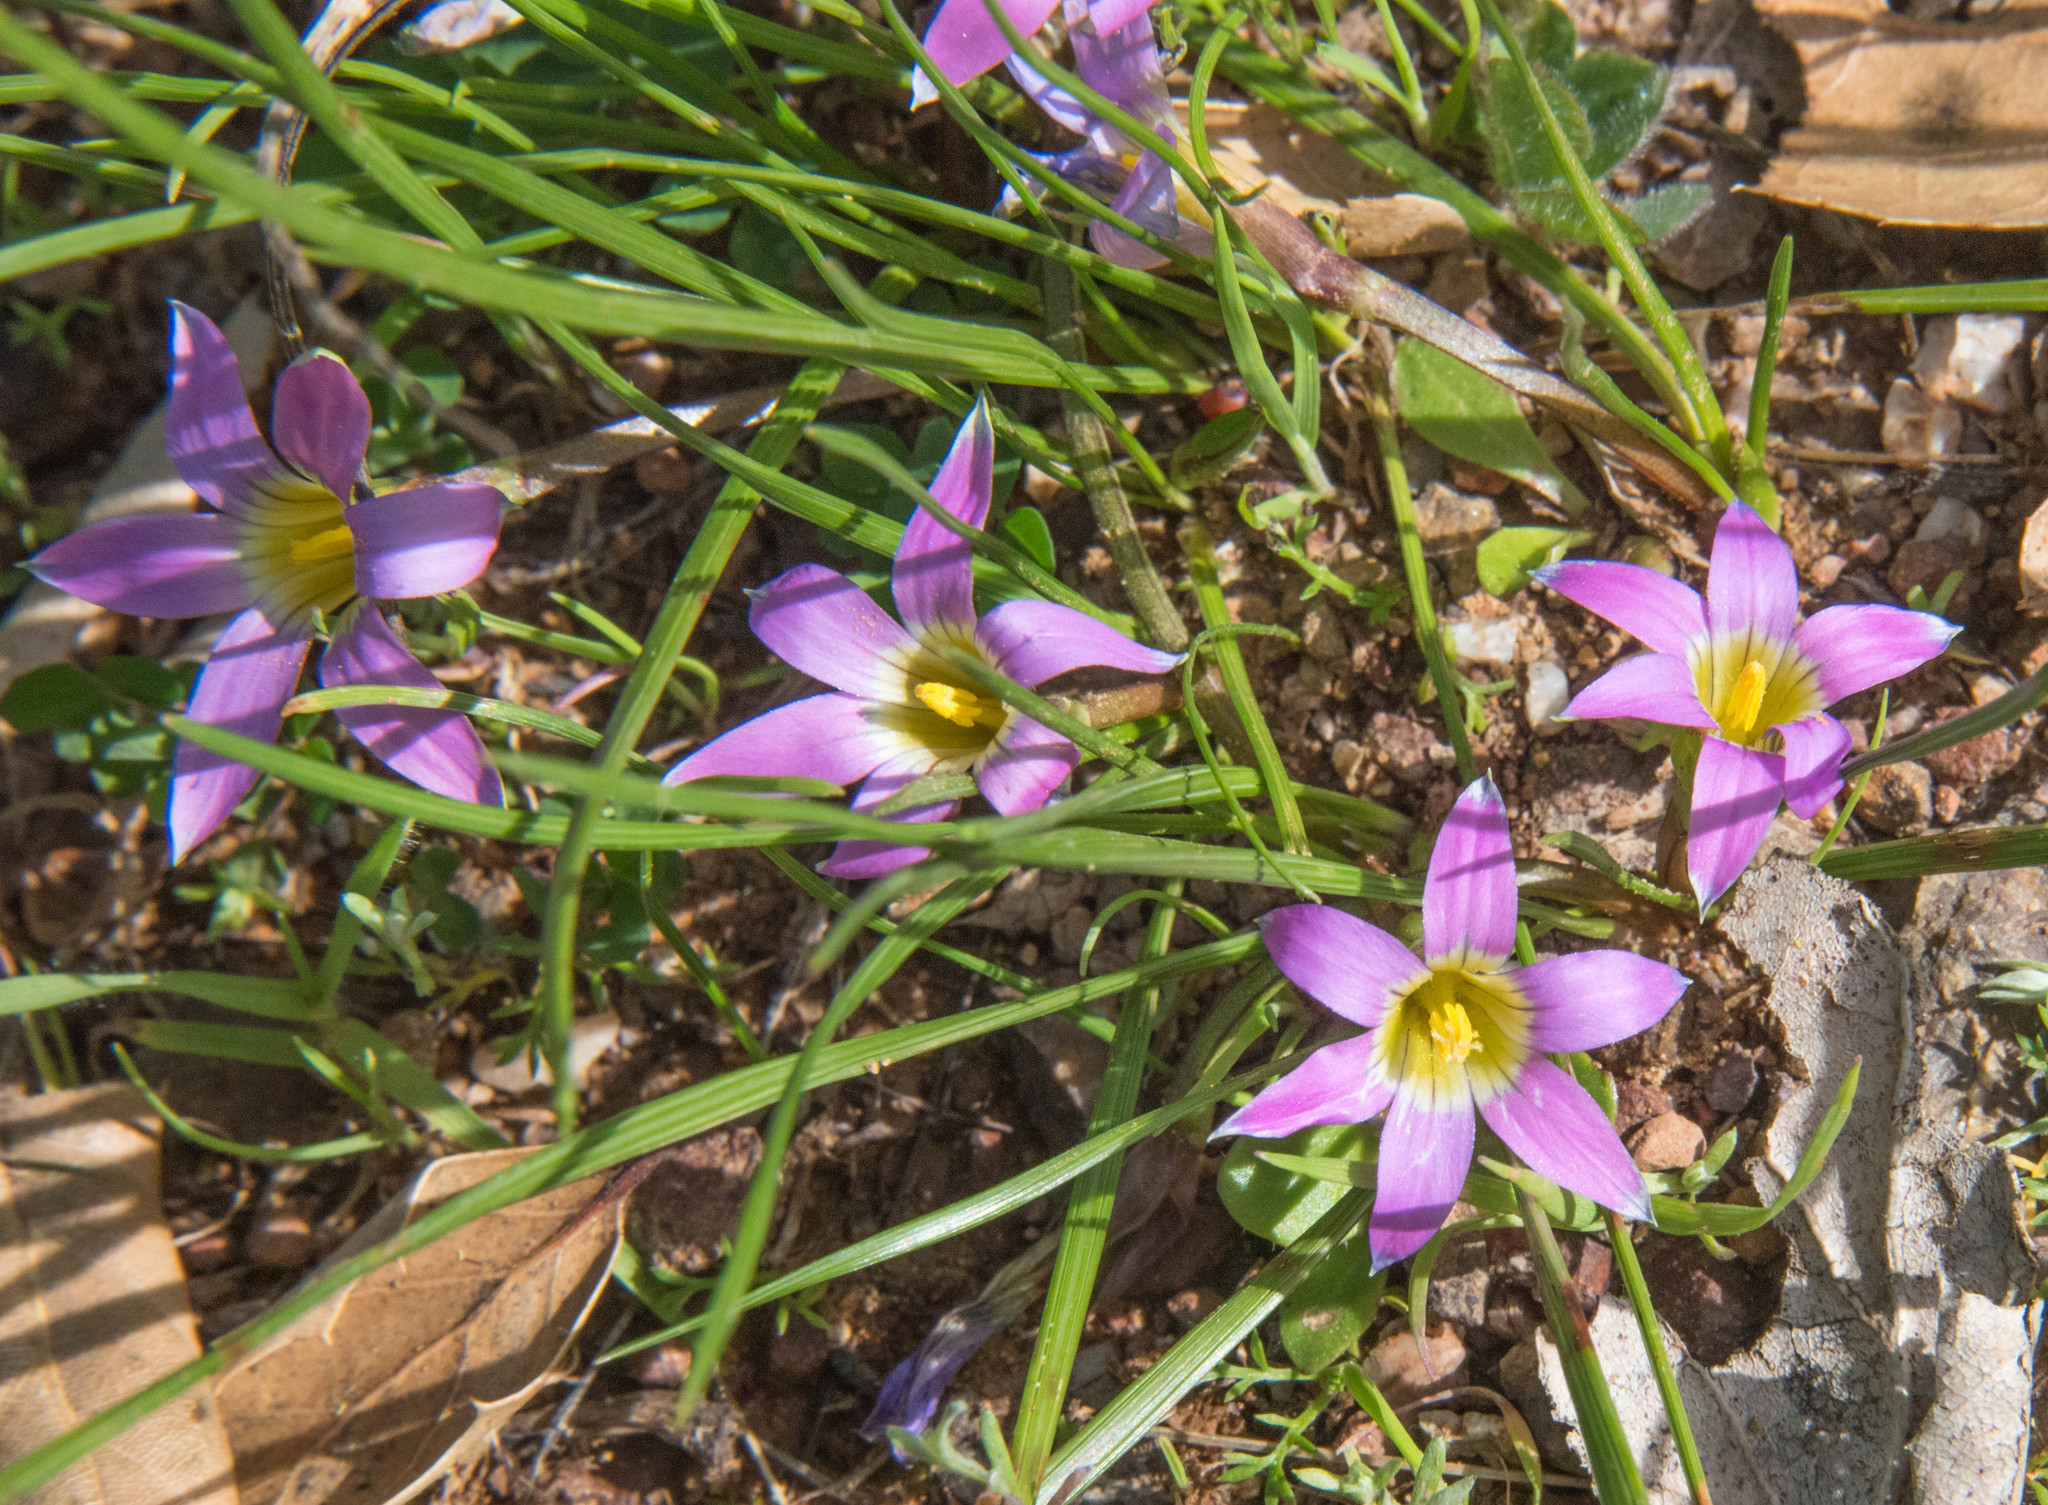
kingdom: Plantae
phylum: Tracheophyta
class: Liliopsida
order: Asparagales
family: Iridaceae
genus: Romulea
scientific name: Romulea rosea
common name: Oniongrass
